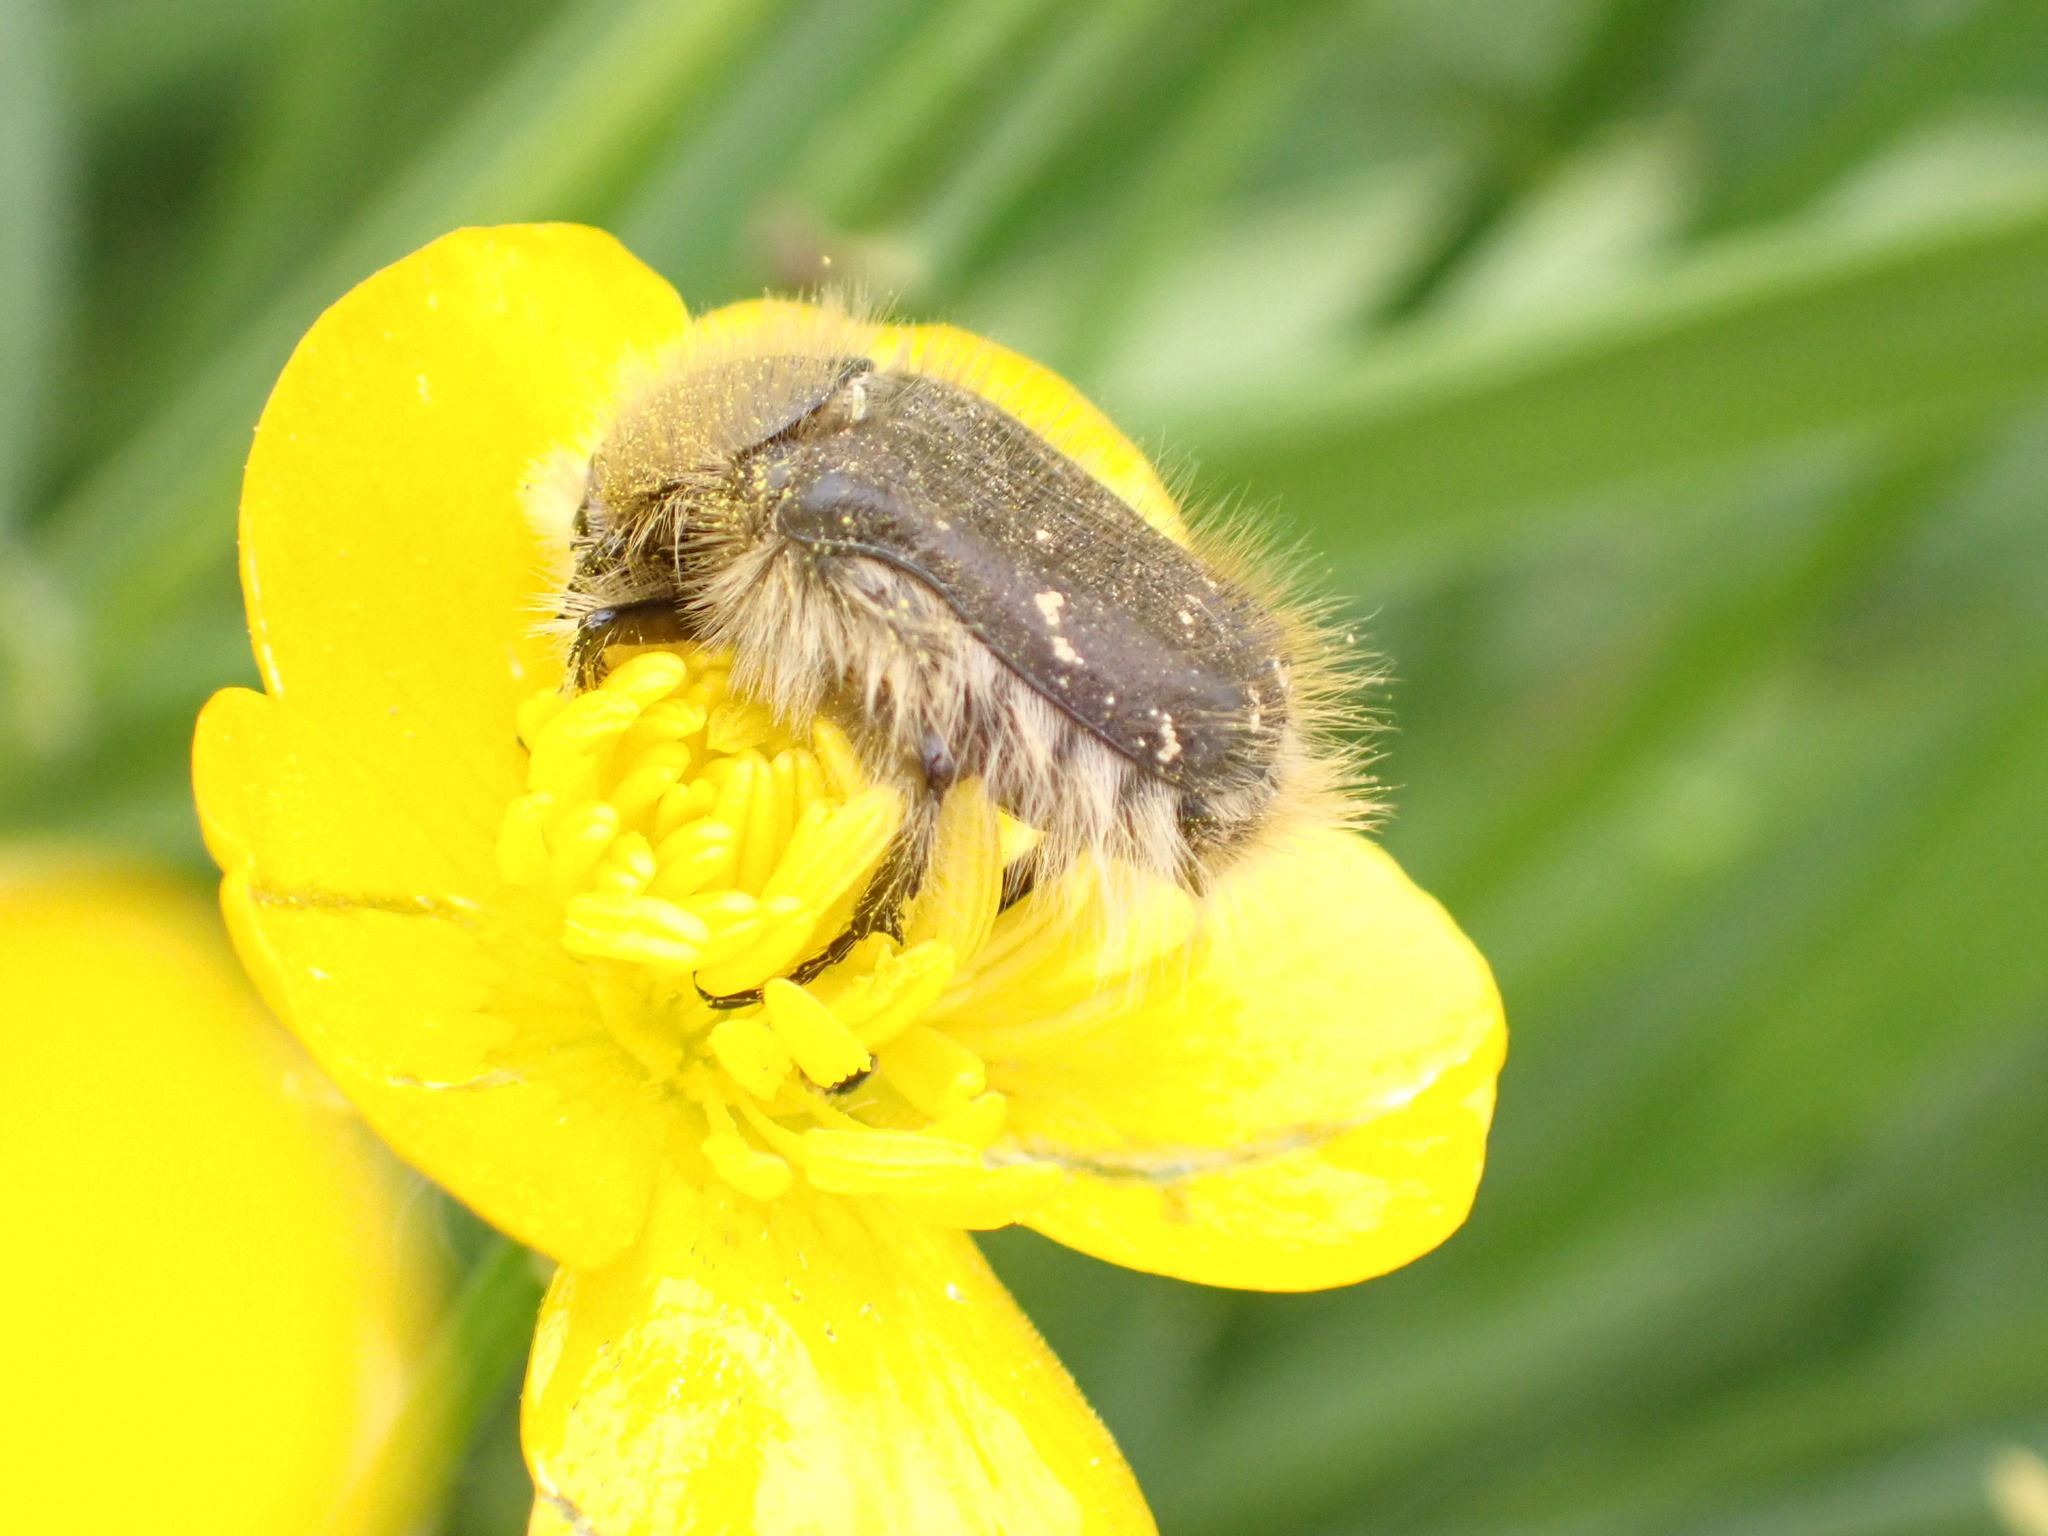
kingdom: Animalia
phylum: Arthropoda
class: Insecta
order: Coleoptera
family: Scarabaeidae
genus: Tropinota
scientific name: Tropinota hirta
